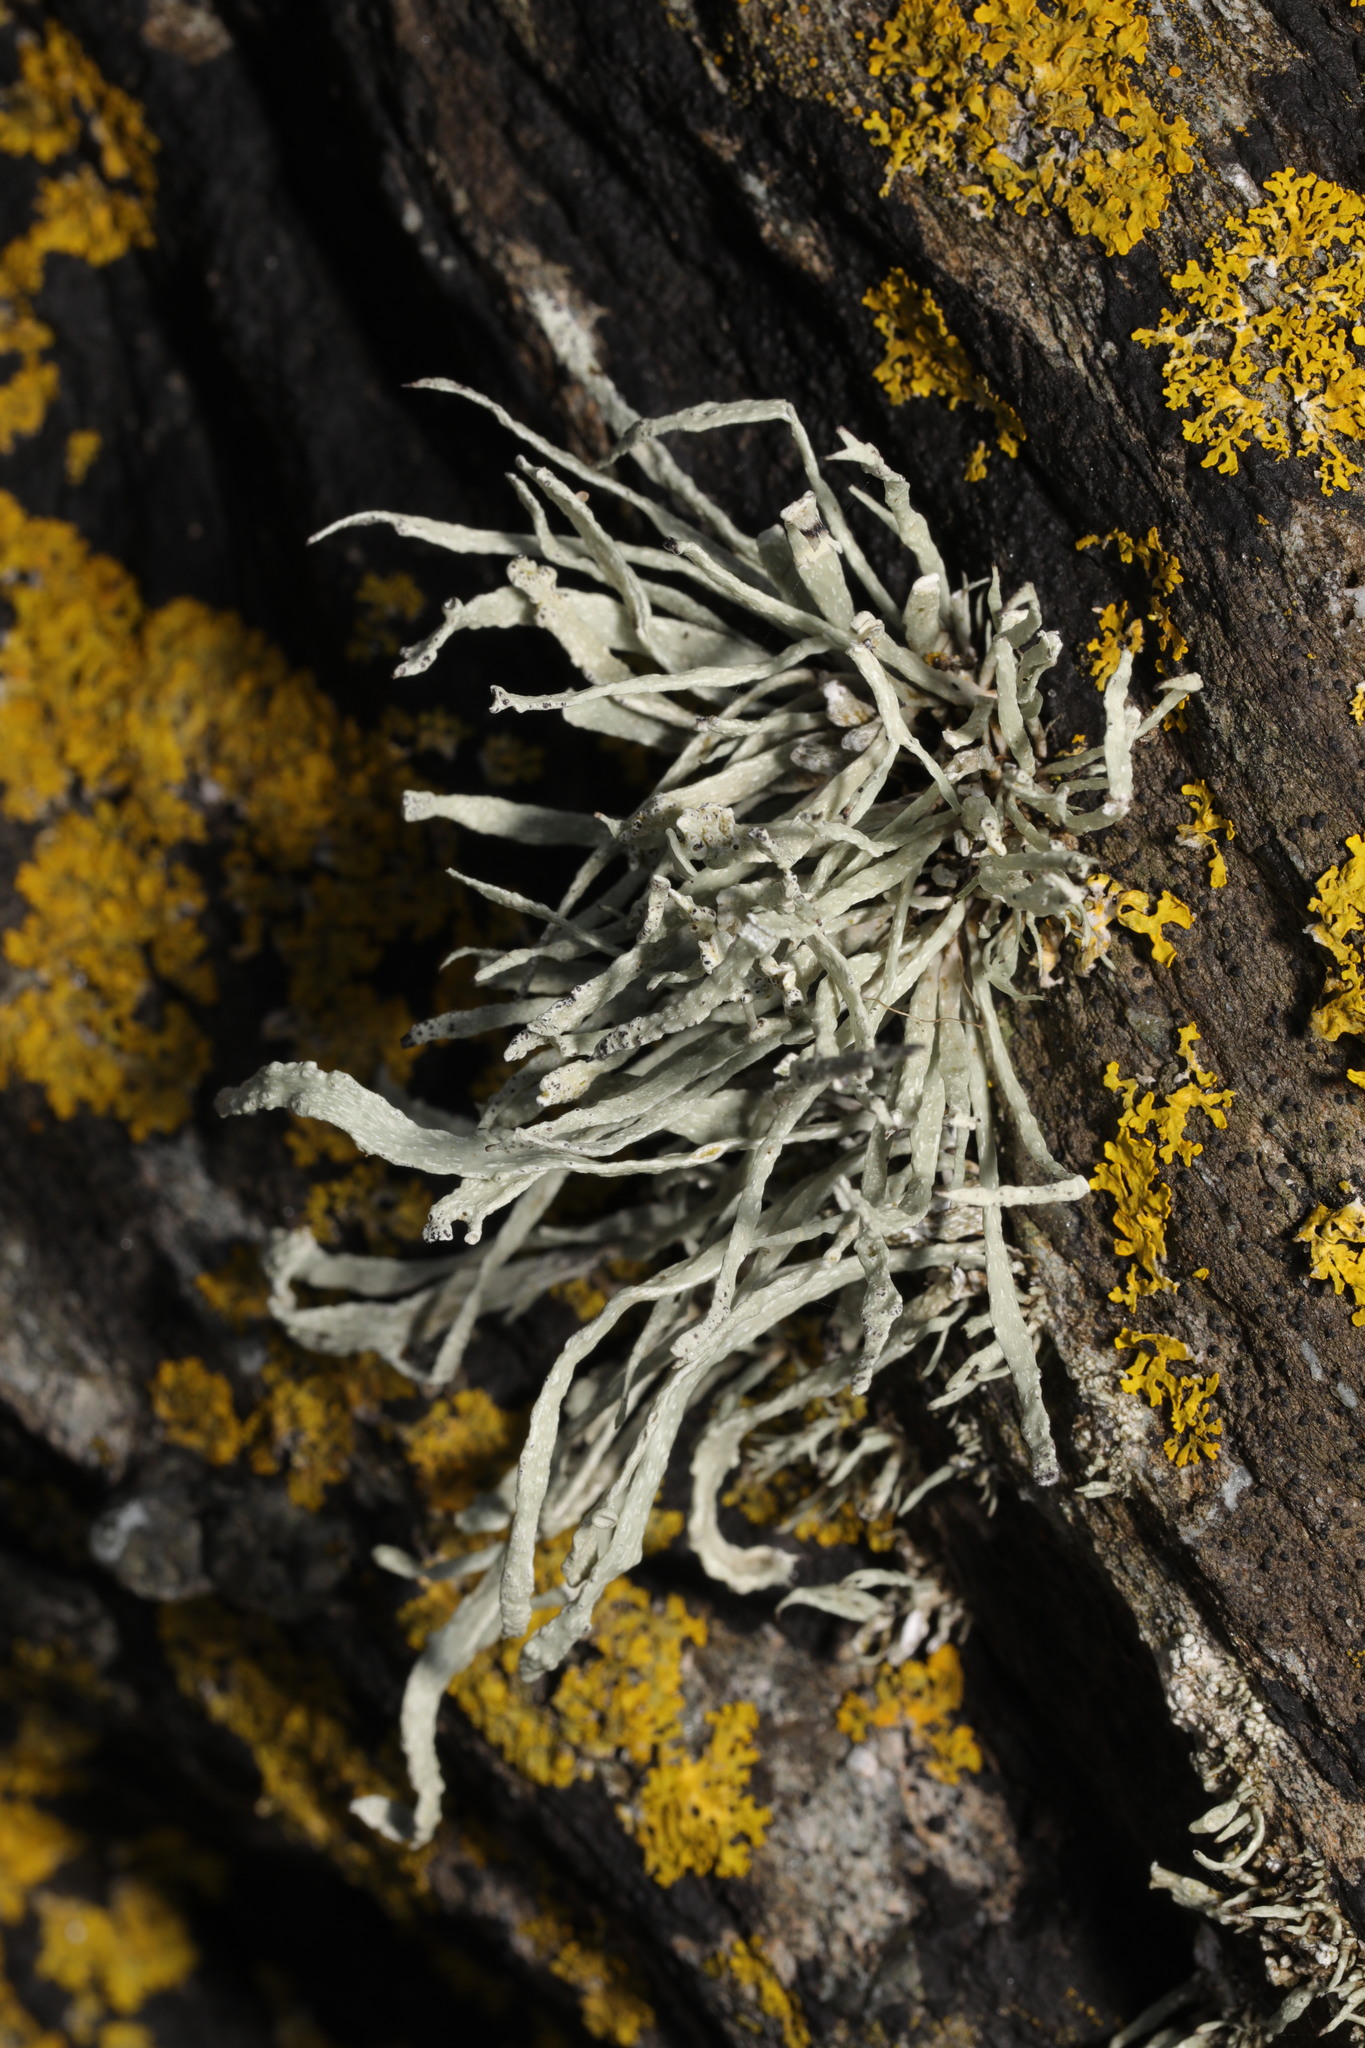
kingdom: Fungi
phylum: Ascomycota
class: Lecanoromycetes
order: Lecanorales
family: Ramalinaceae
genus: Ramalina
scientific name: Ramalina siliquosa
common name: Sea ivory
